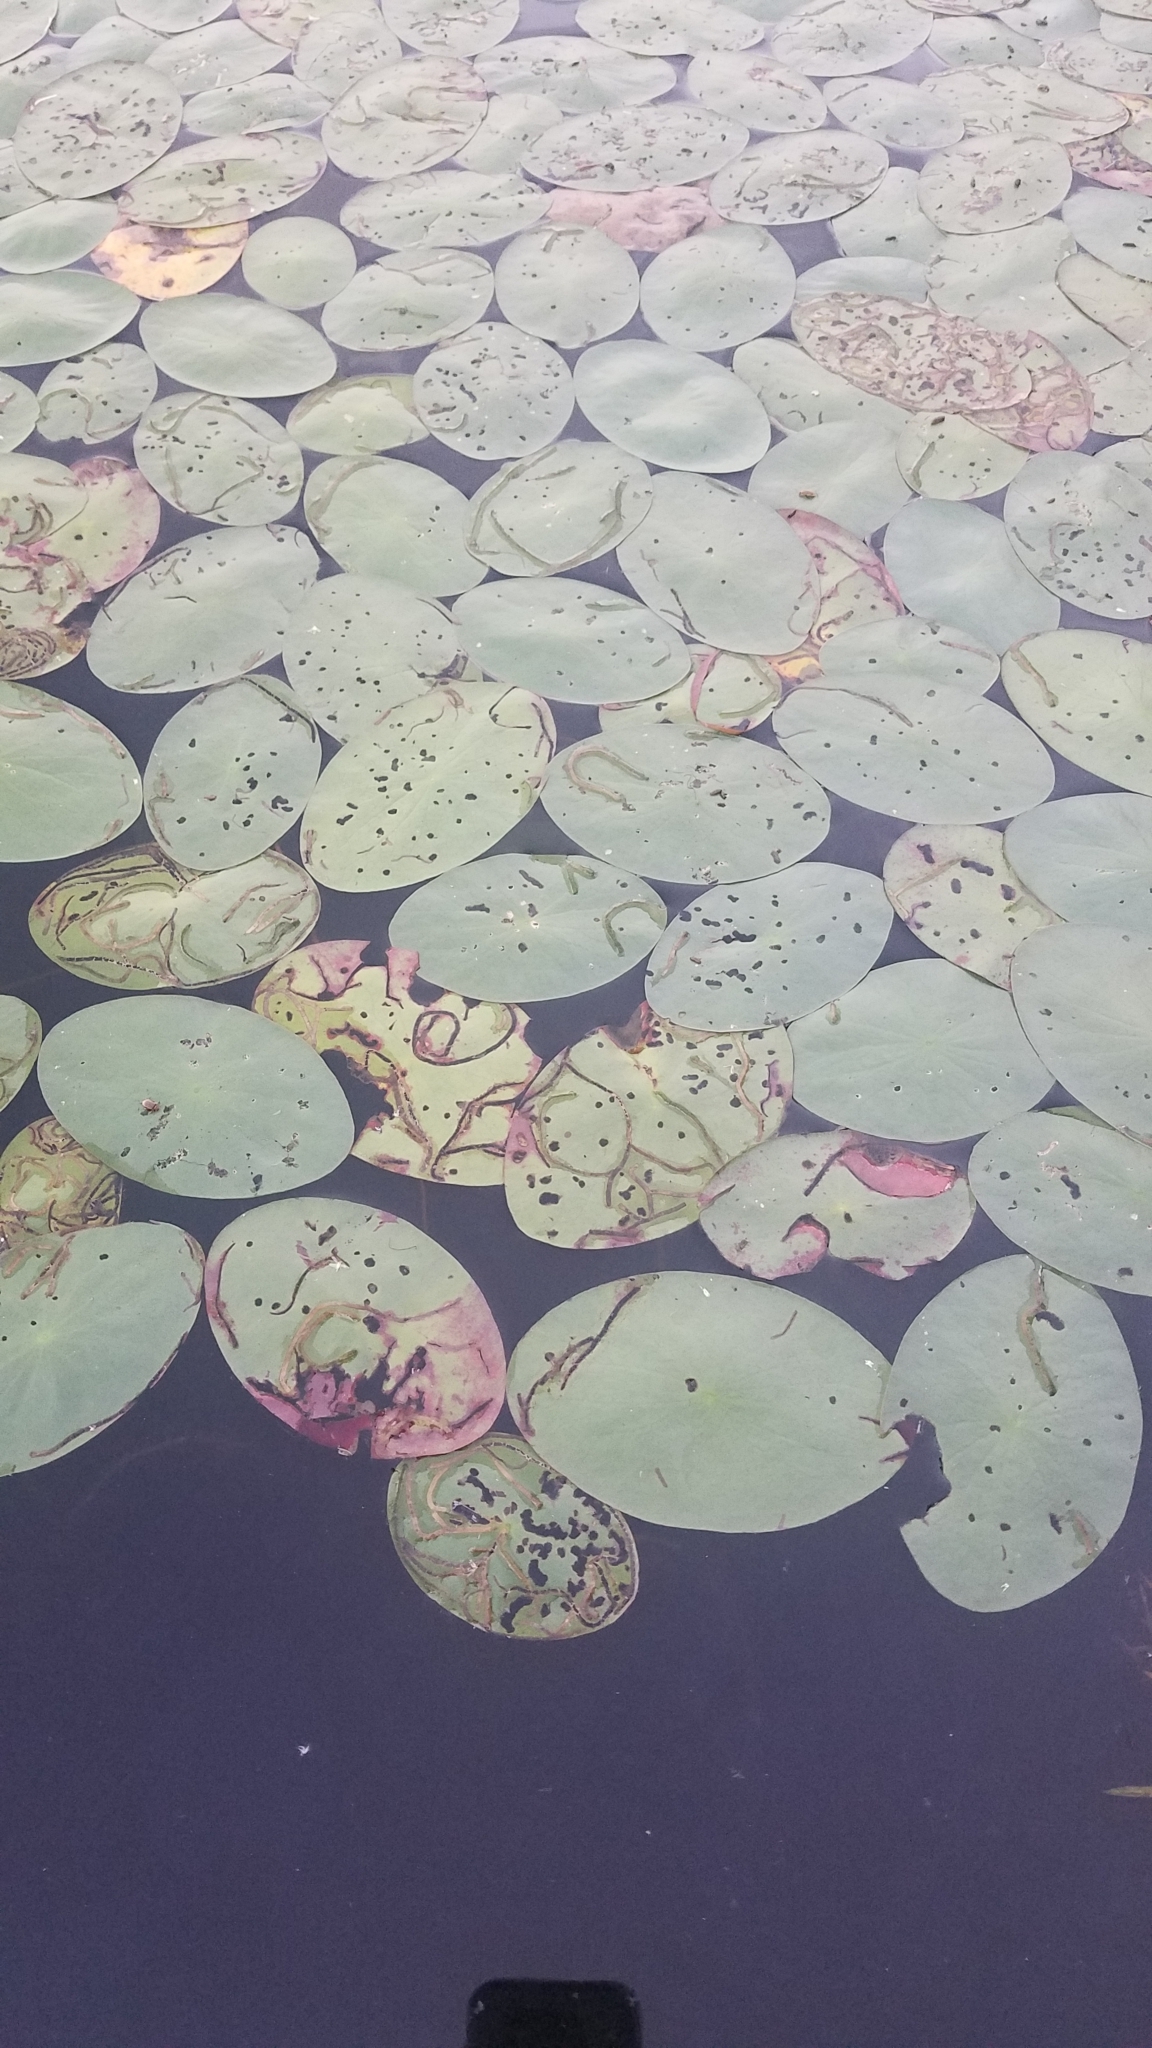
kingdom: Plantae
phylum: Tracheophyta
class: Magnoliopsida
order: Nymphaeales
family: Cabombaceae
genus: Brasenia
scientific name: Brasenia schreberi
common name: Water-shield
